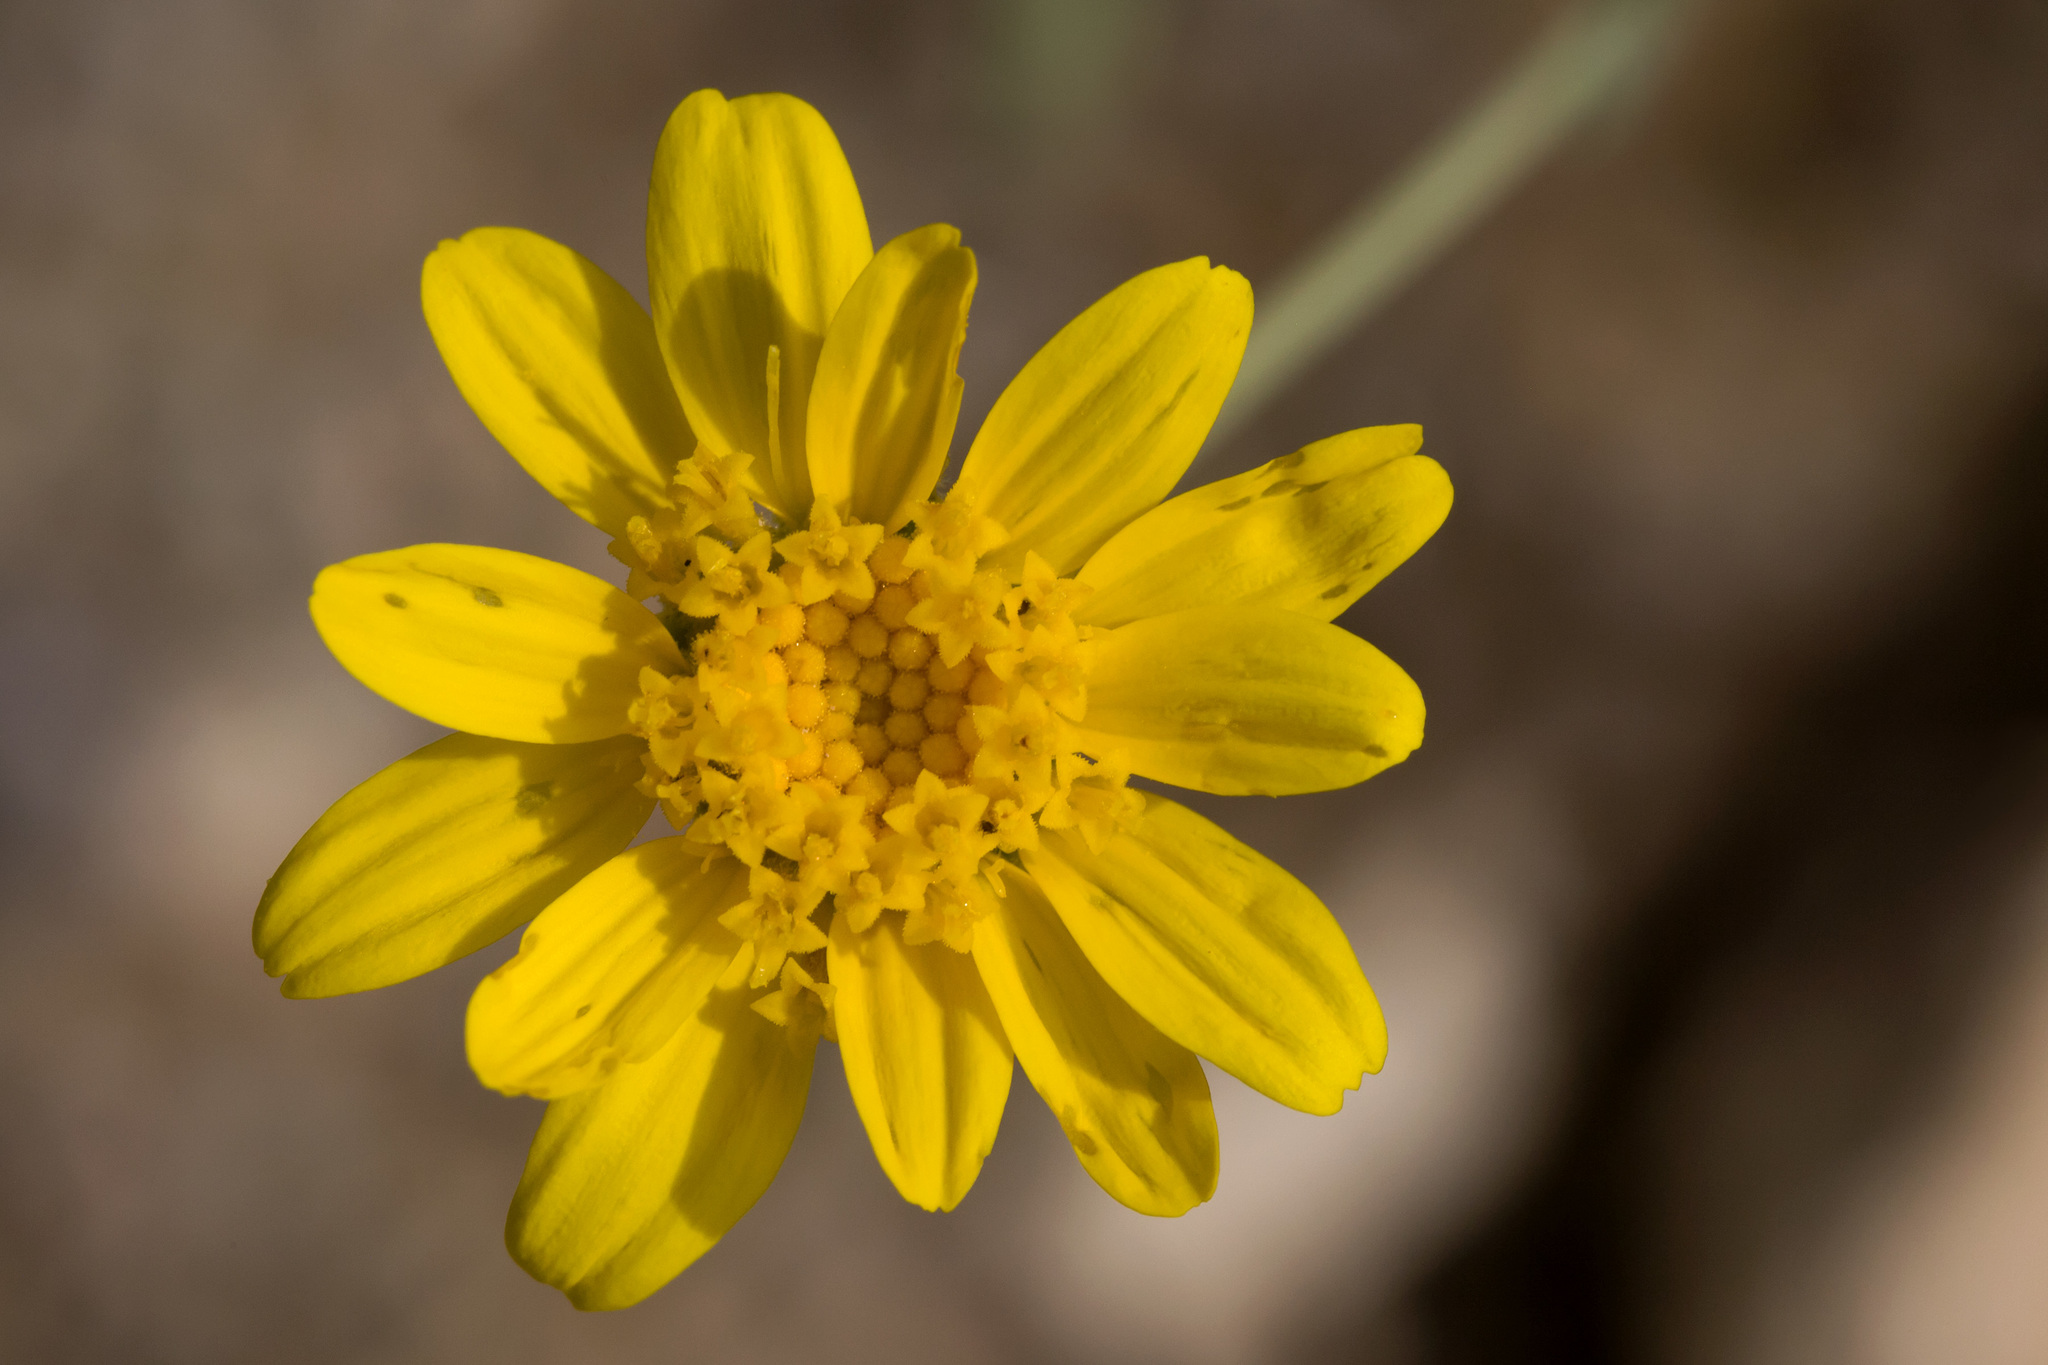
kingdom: Plantae
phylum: Tracheophyta
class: Magnoliopsida
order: Asterales
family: Asteraceae
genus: Picradeniopsis
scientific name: Picradeniopsis absinthifolia
